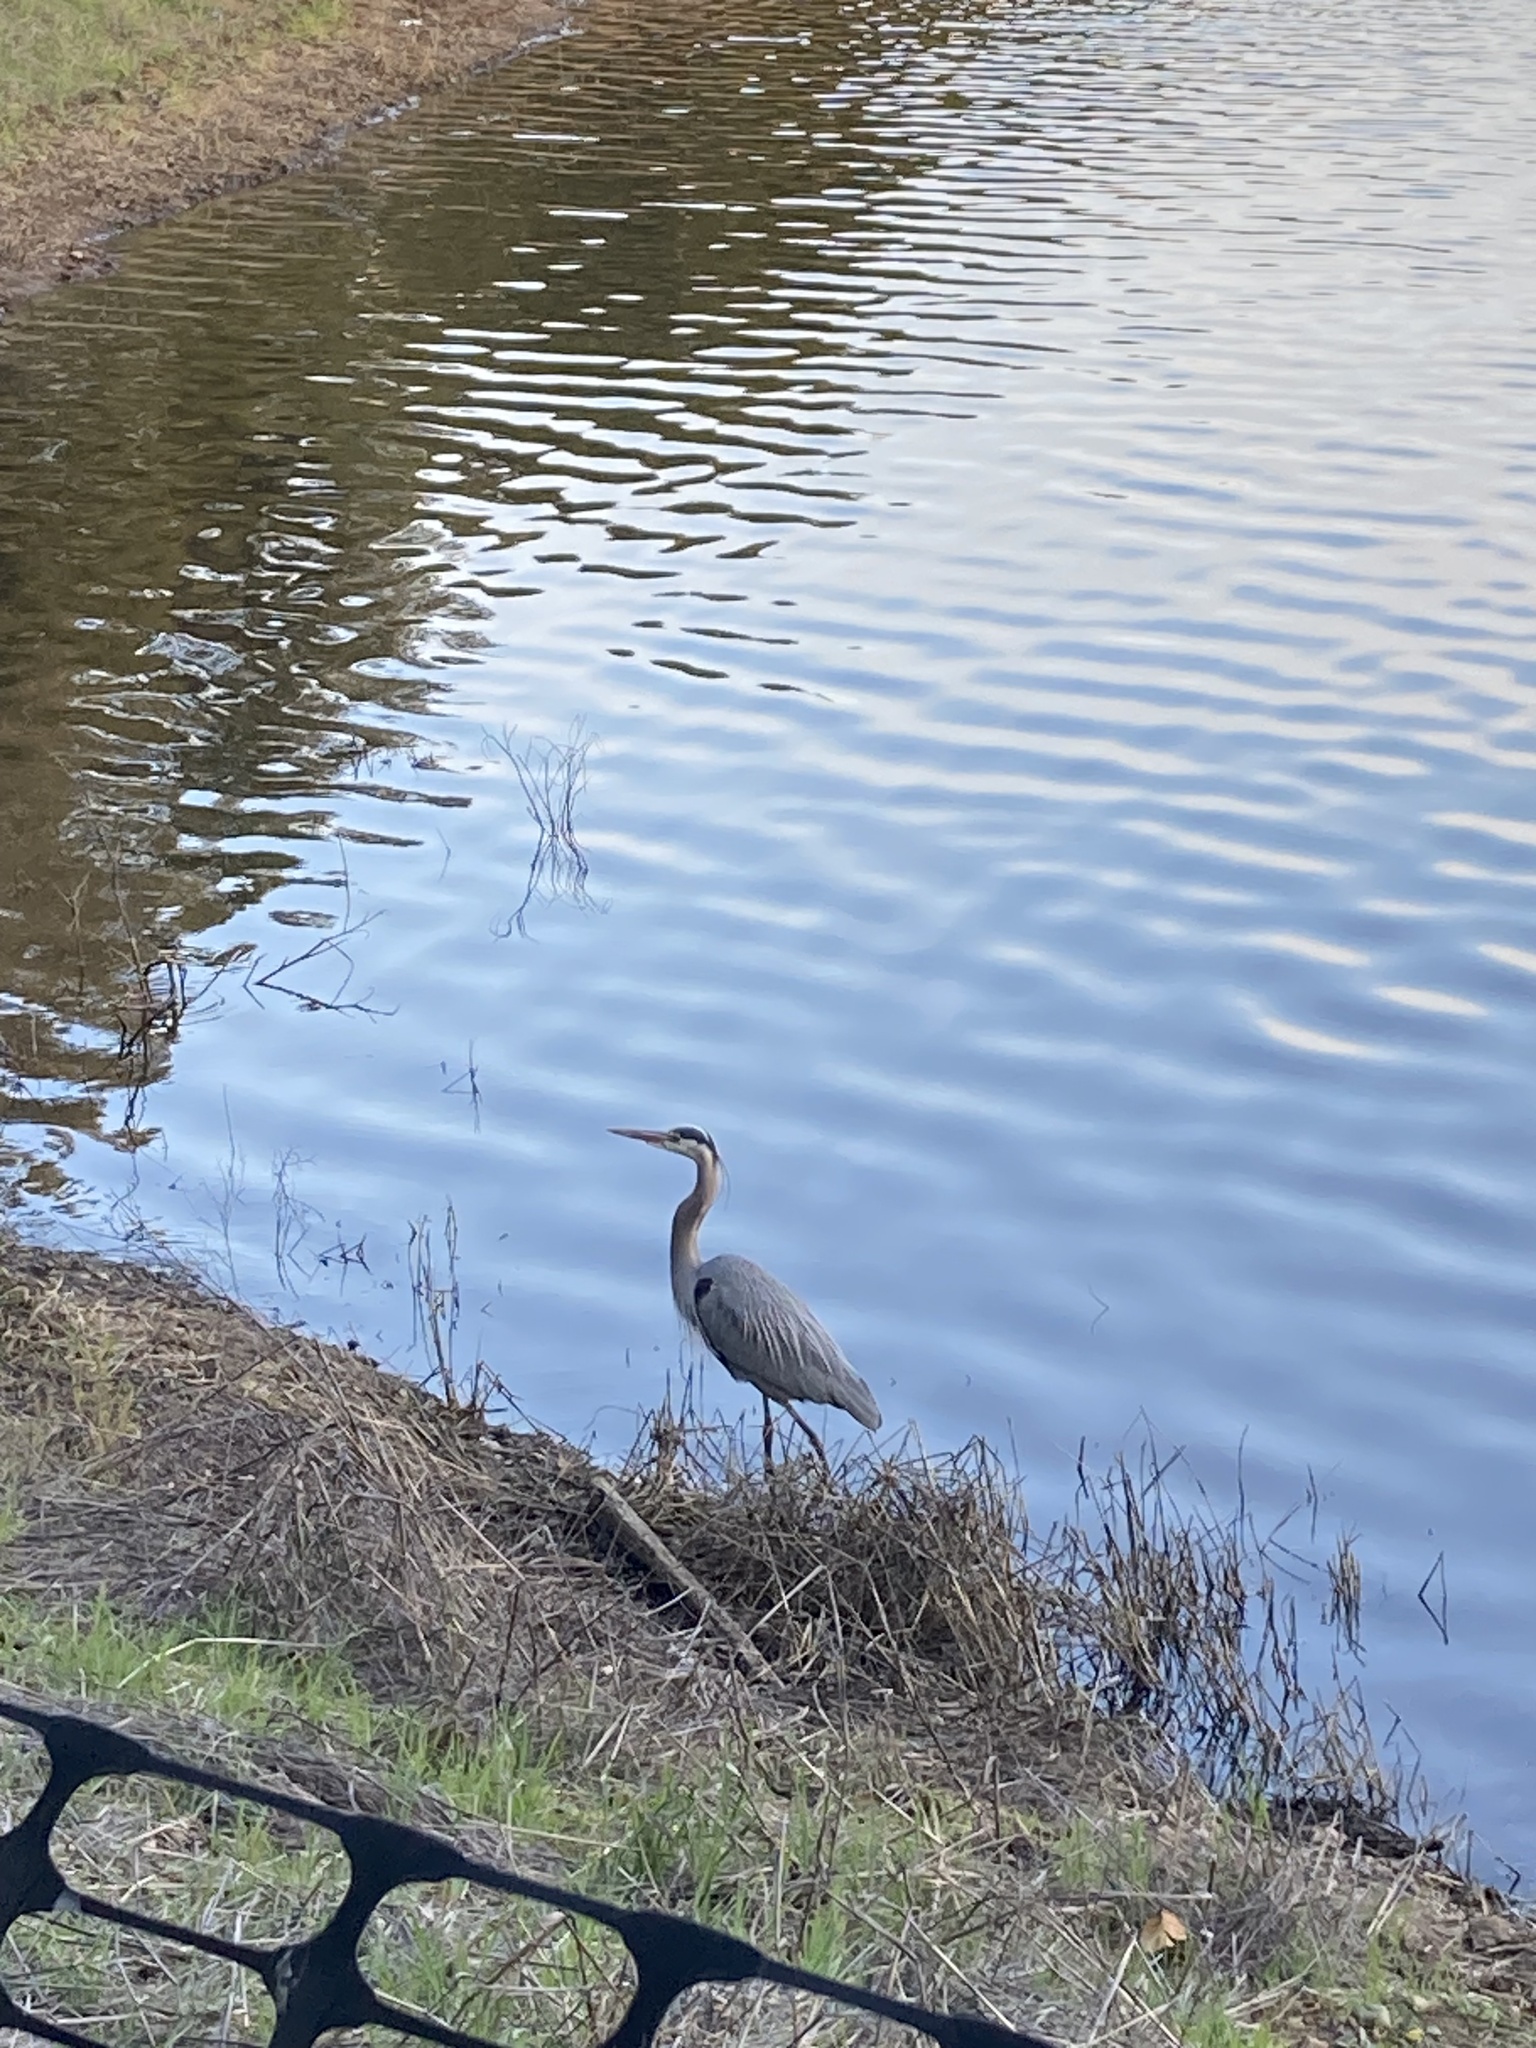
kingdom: Animalia
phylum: Chordata
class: Aves
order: Pelecaniformes
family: Ardeidae
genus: Ardea
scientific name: Ardea herodias
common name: Great blue heron
